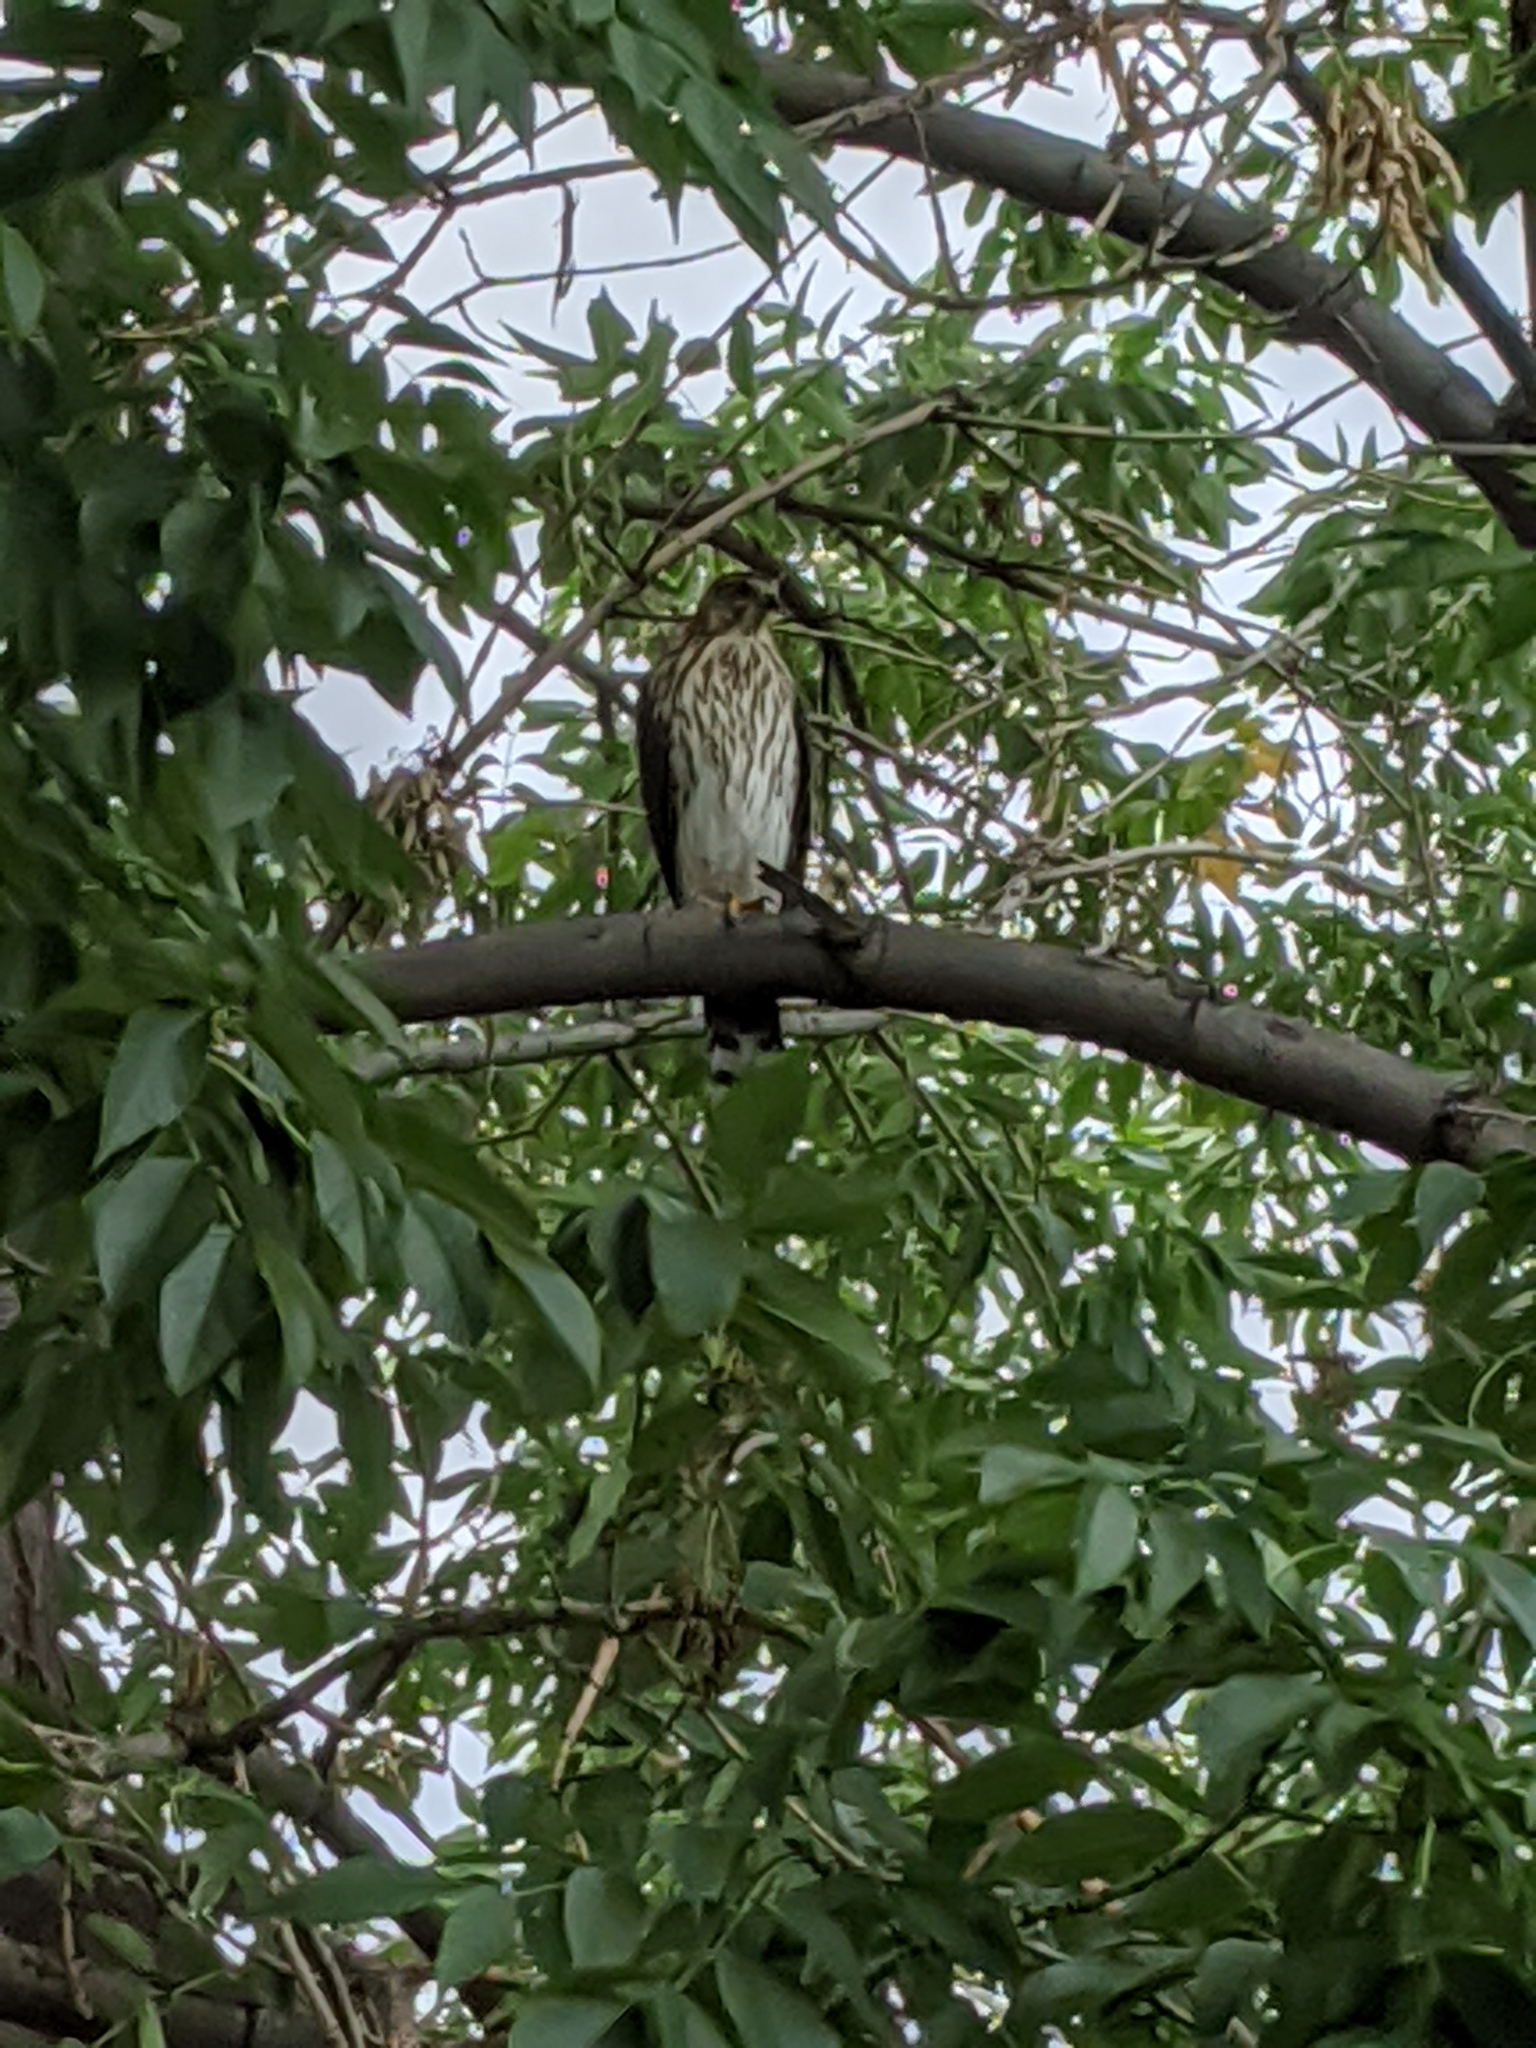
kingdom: Animalia
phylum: Chordata
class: Aves
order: Accipitriformes
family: Accipitridae
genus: Accipiter
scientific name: Accipiter cooperii
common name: Cooper's hawk
